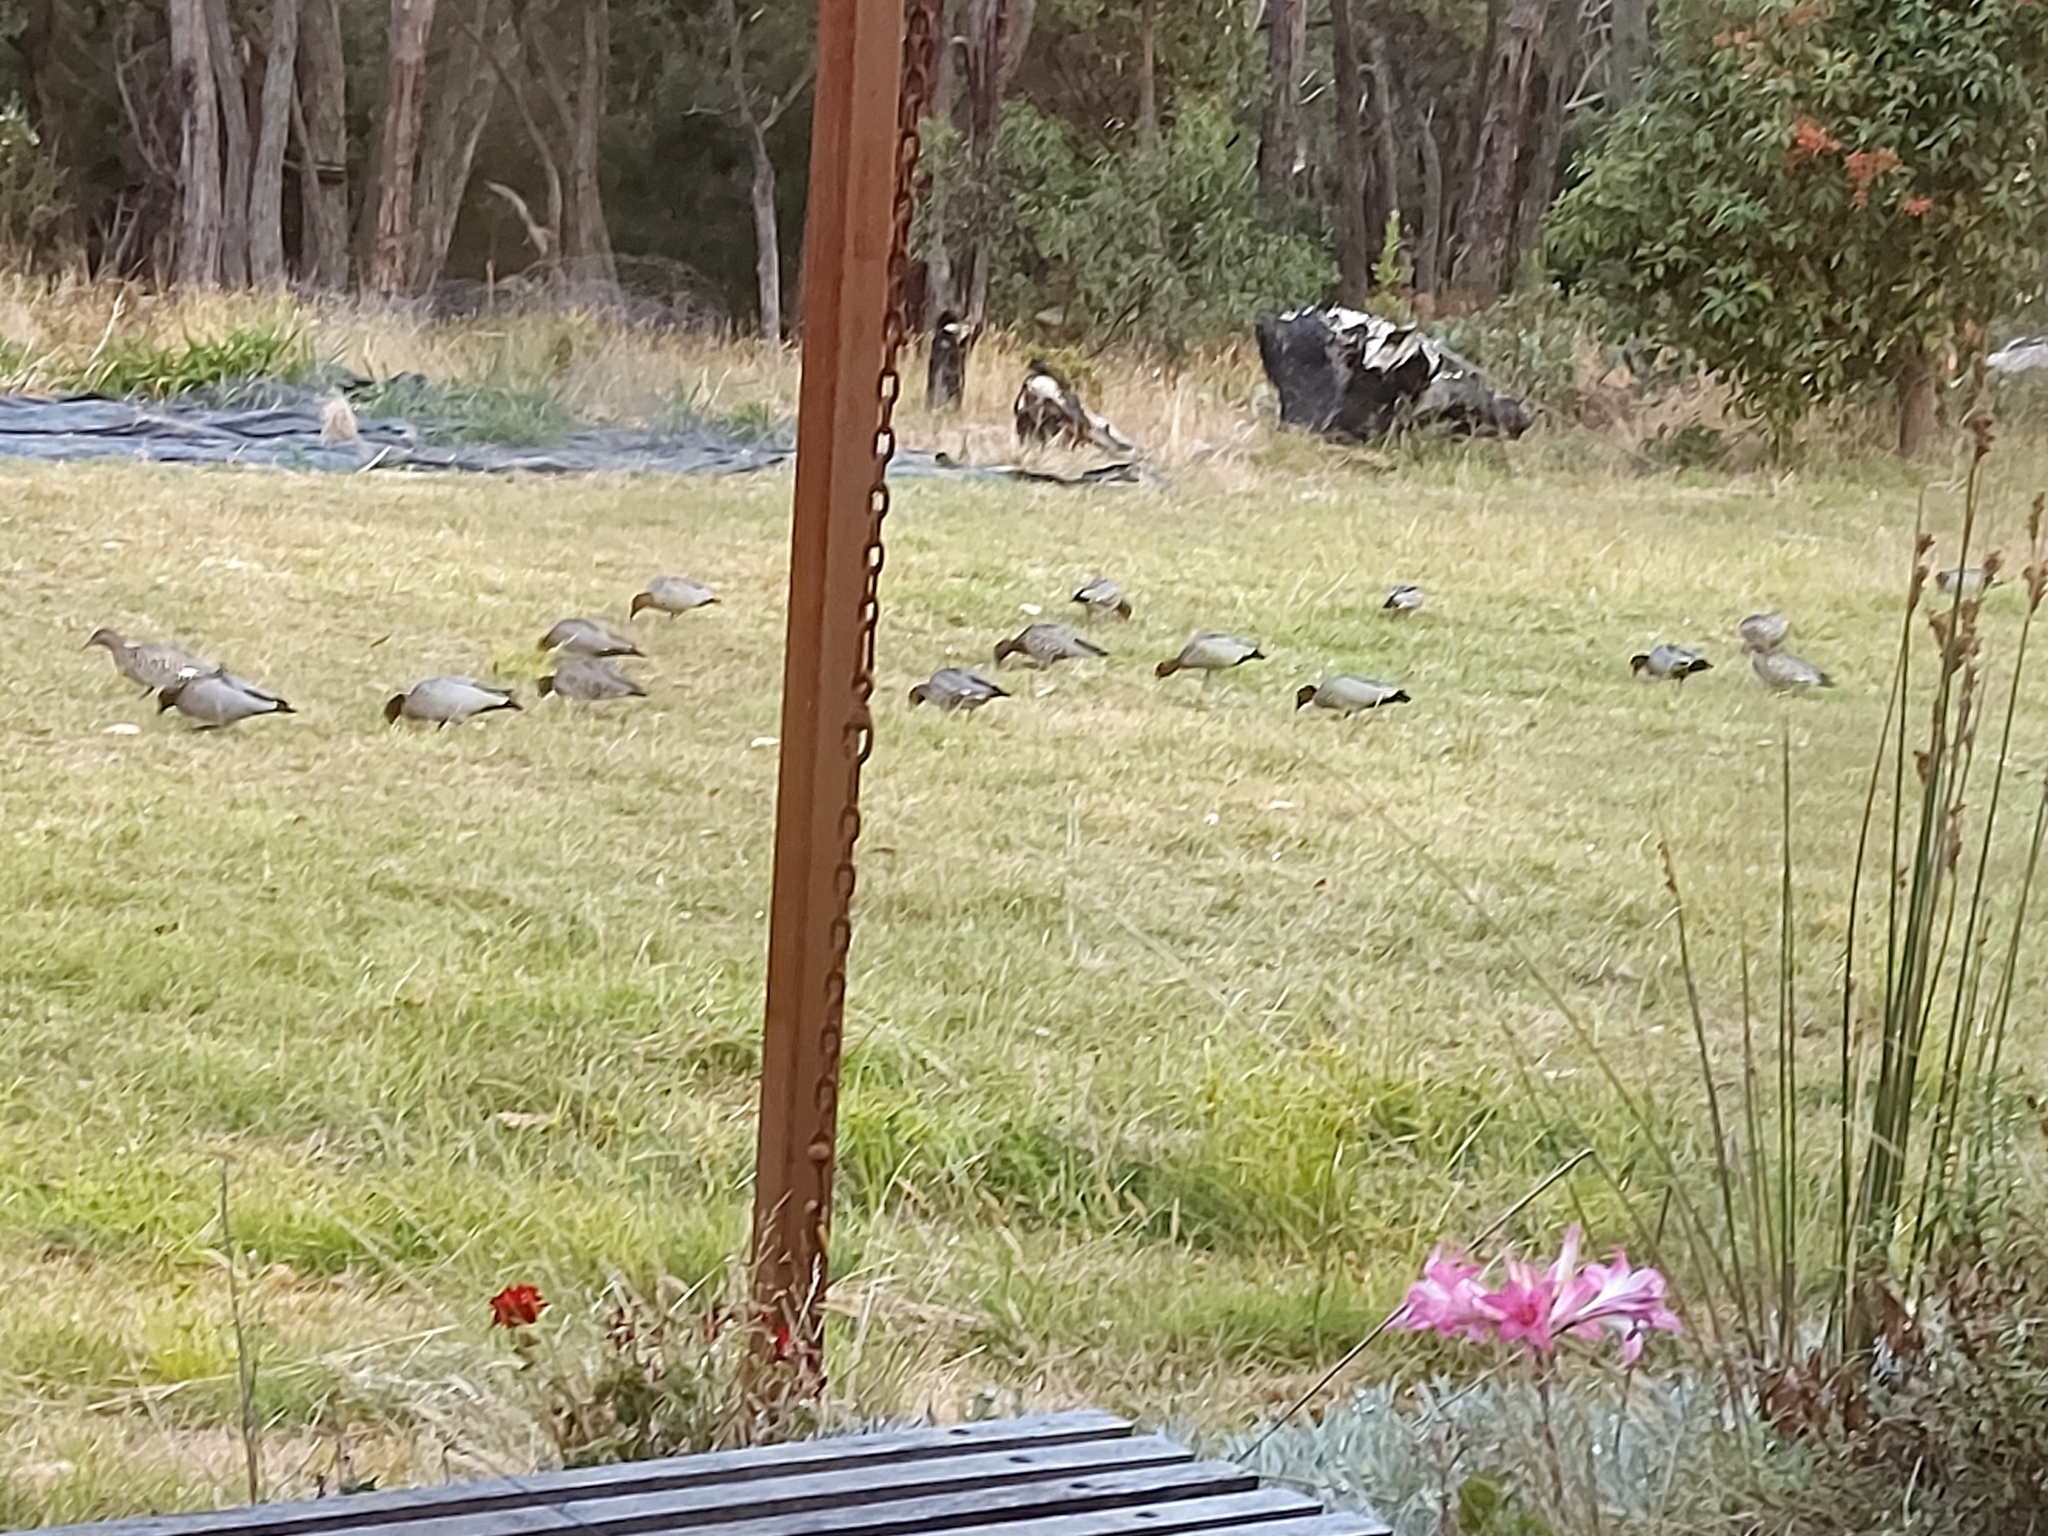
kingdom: Animalia
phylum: Chordata
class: Aves
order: Anseriformes
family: Anatidae
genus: Chenonetta
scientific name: Chenonetta jubata
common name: Maned duck
